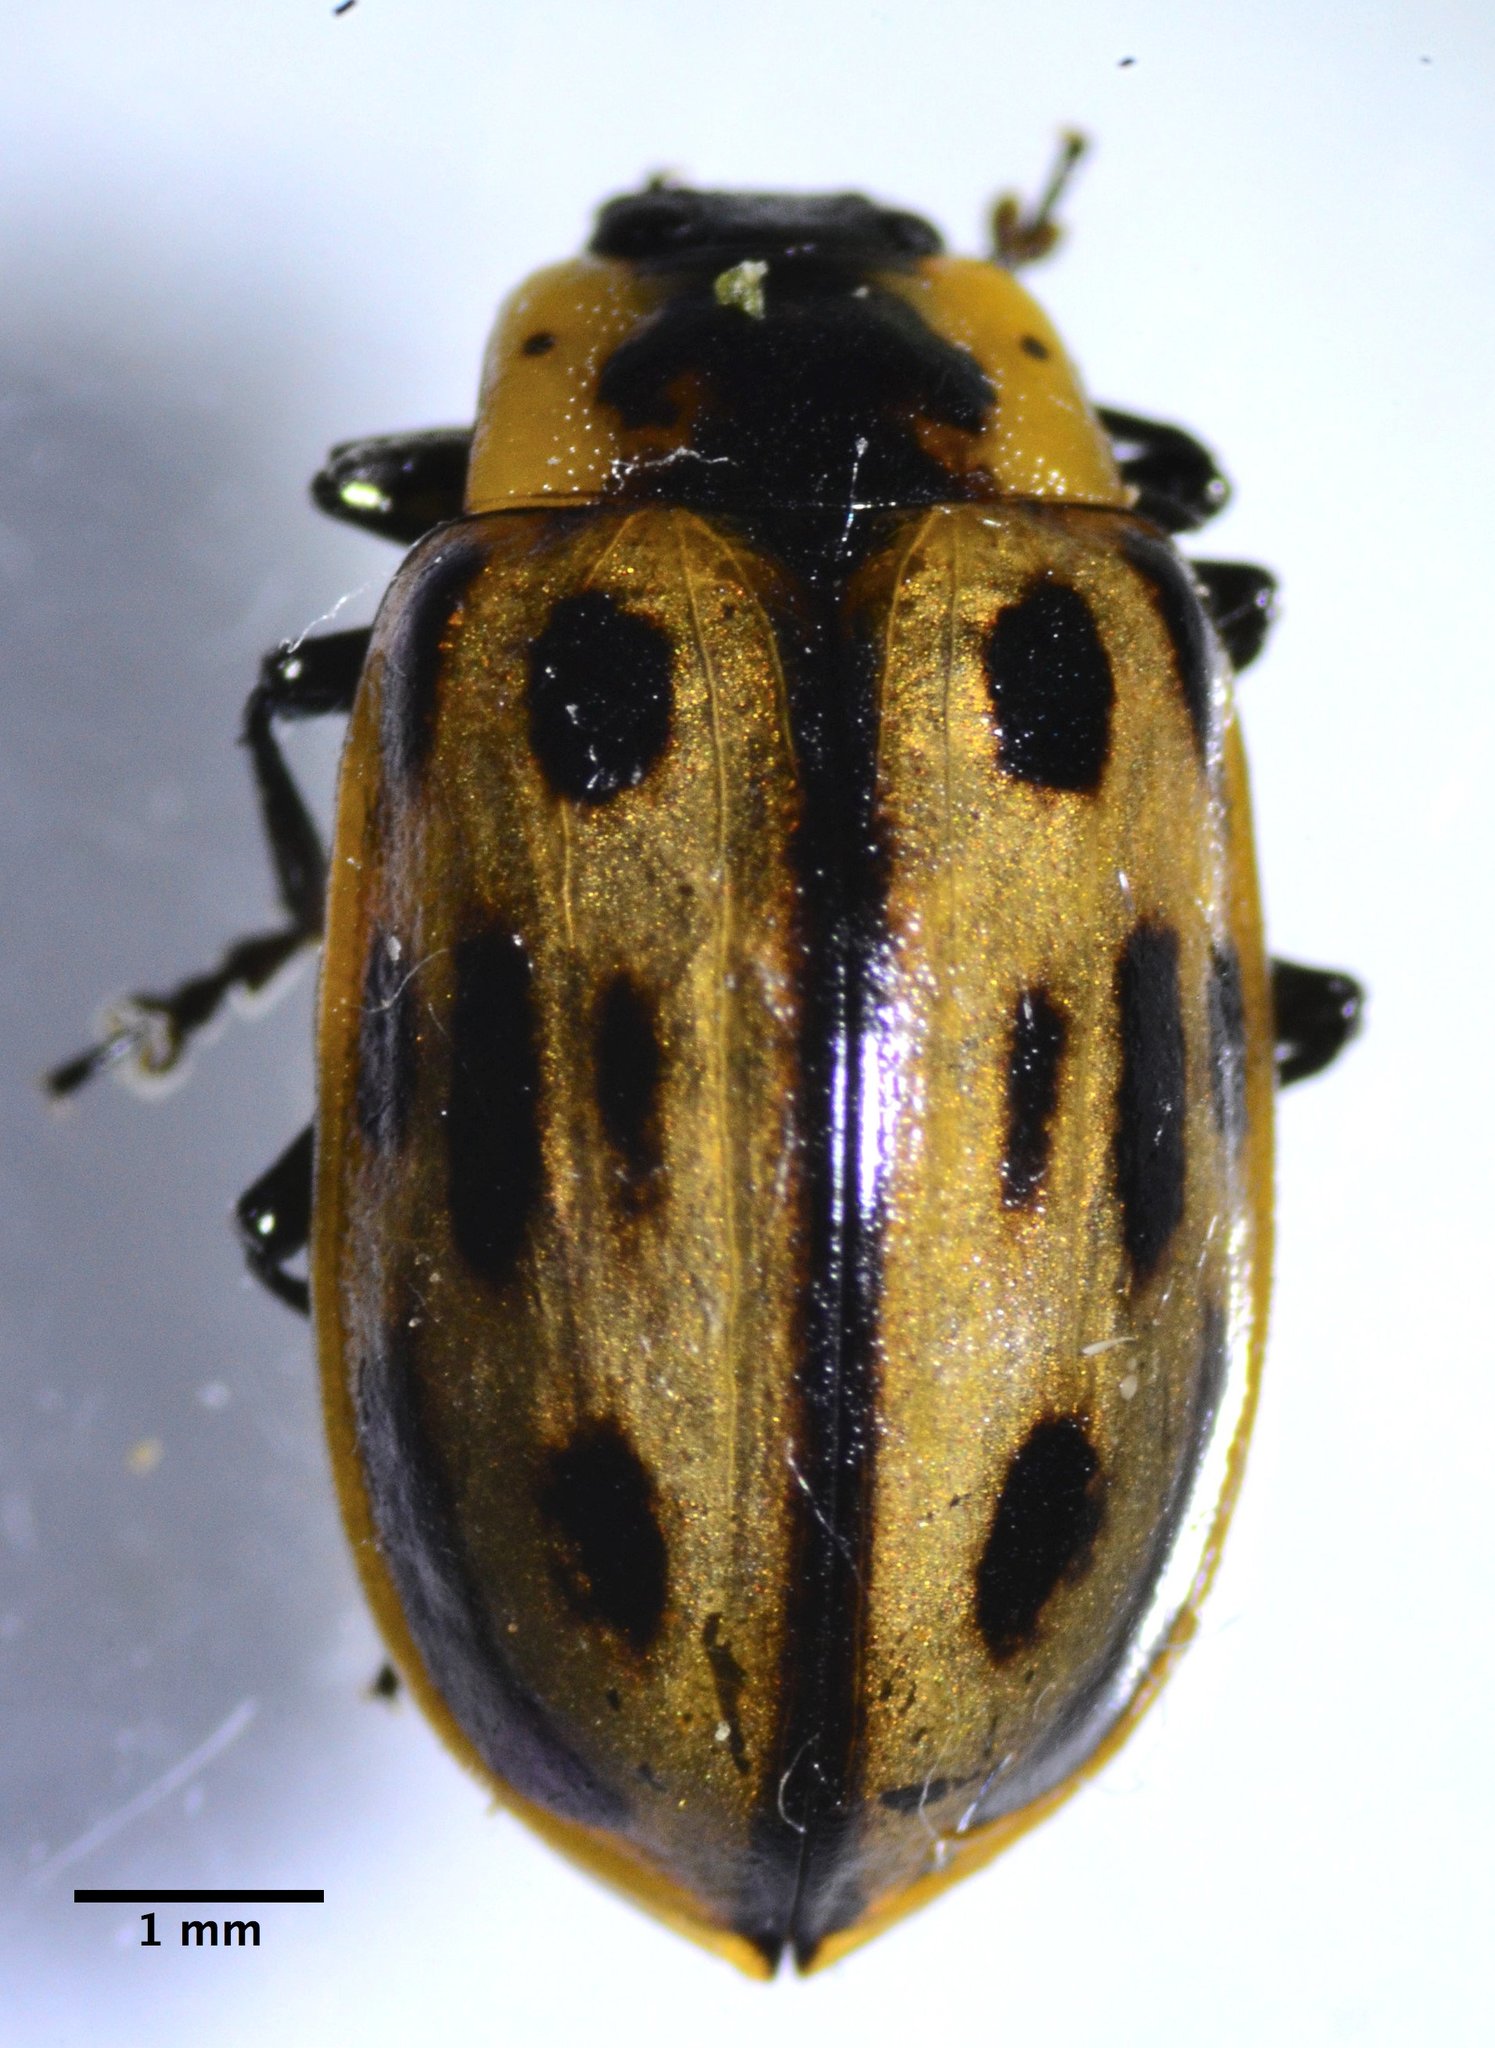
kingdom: Animalia
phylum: Arthropoda
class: Insecta
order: Coleoptera
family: Chrysomelidae
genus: Chrysomela
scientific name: Chrysomela confluens
